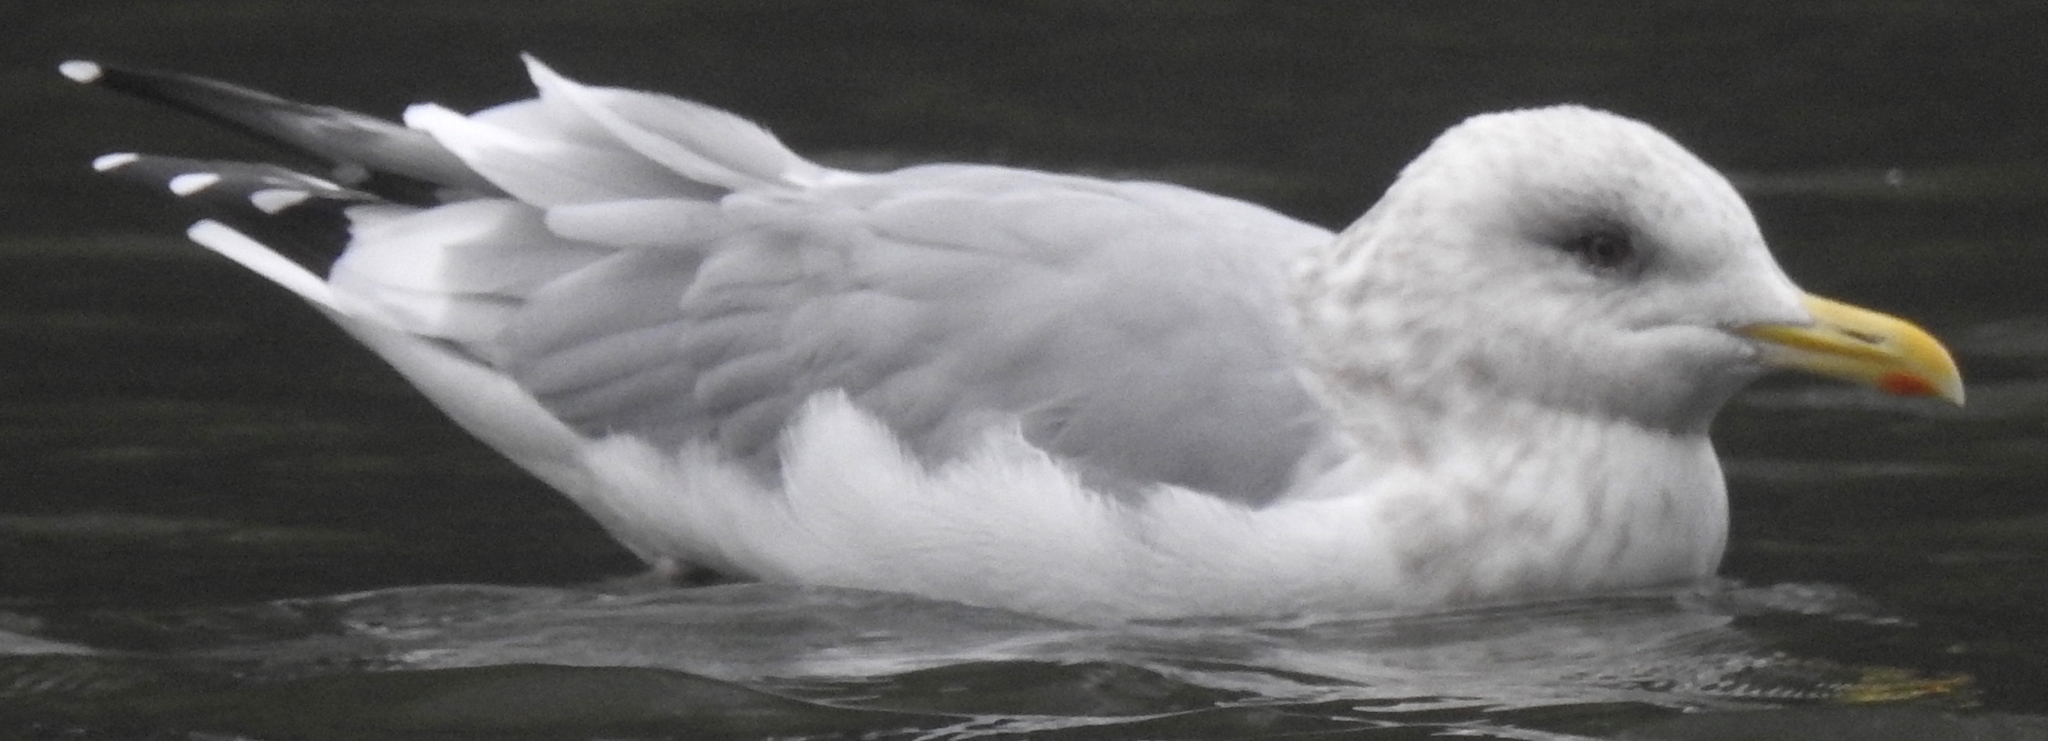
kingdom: Animalia
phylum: Chordata
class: Aves
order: Charadriiformes
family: Laridae
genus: Larus
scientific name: Larus glaucoides
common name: Iceland gull
